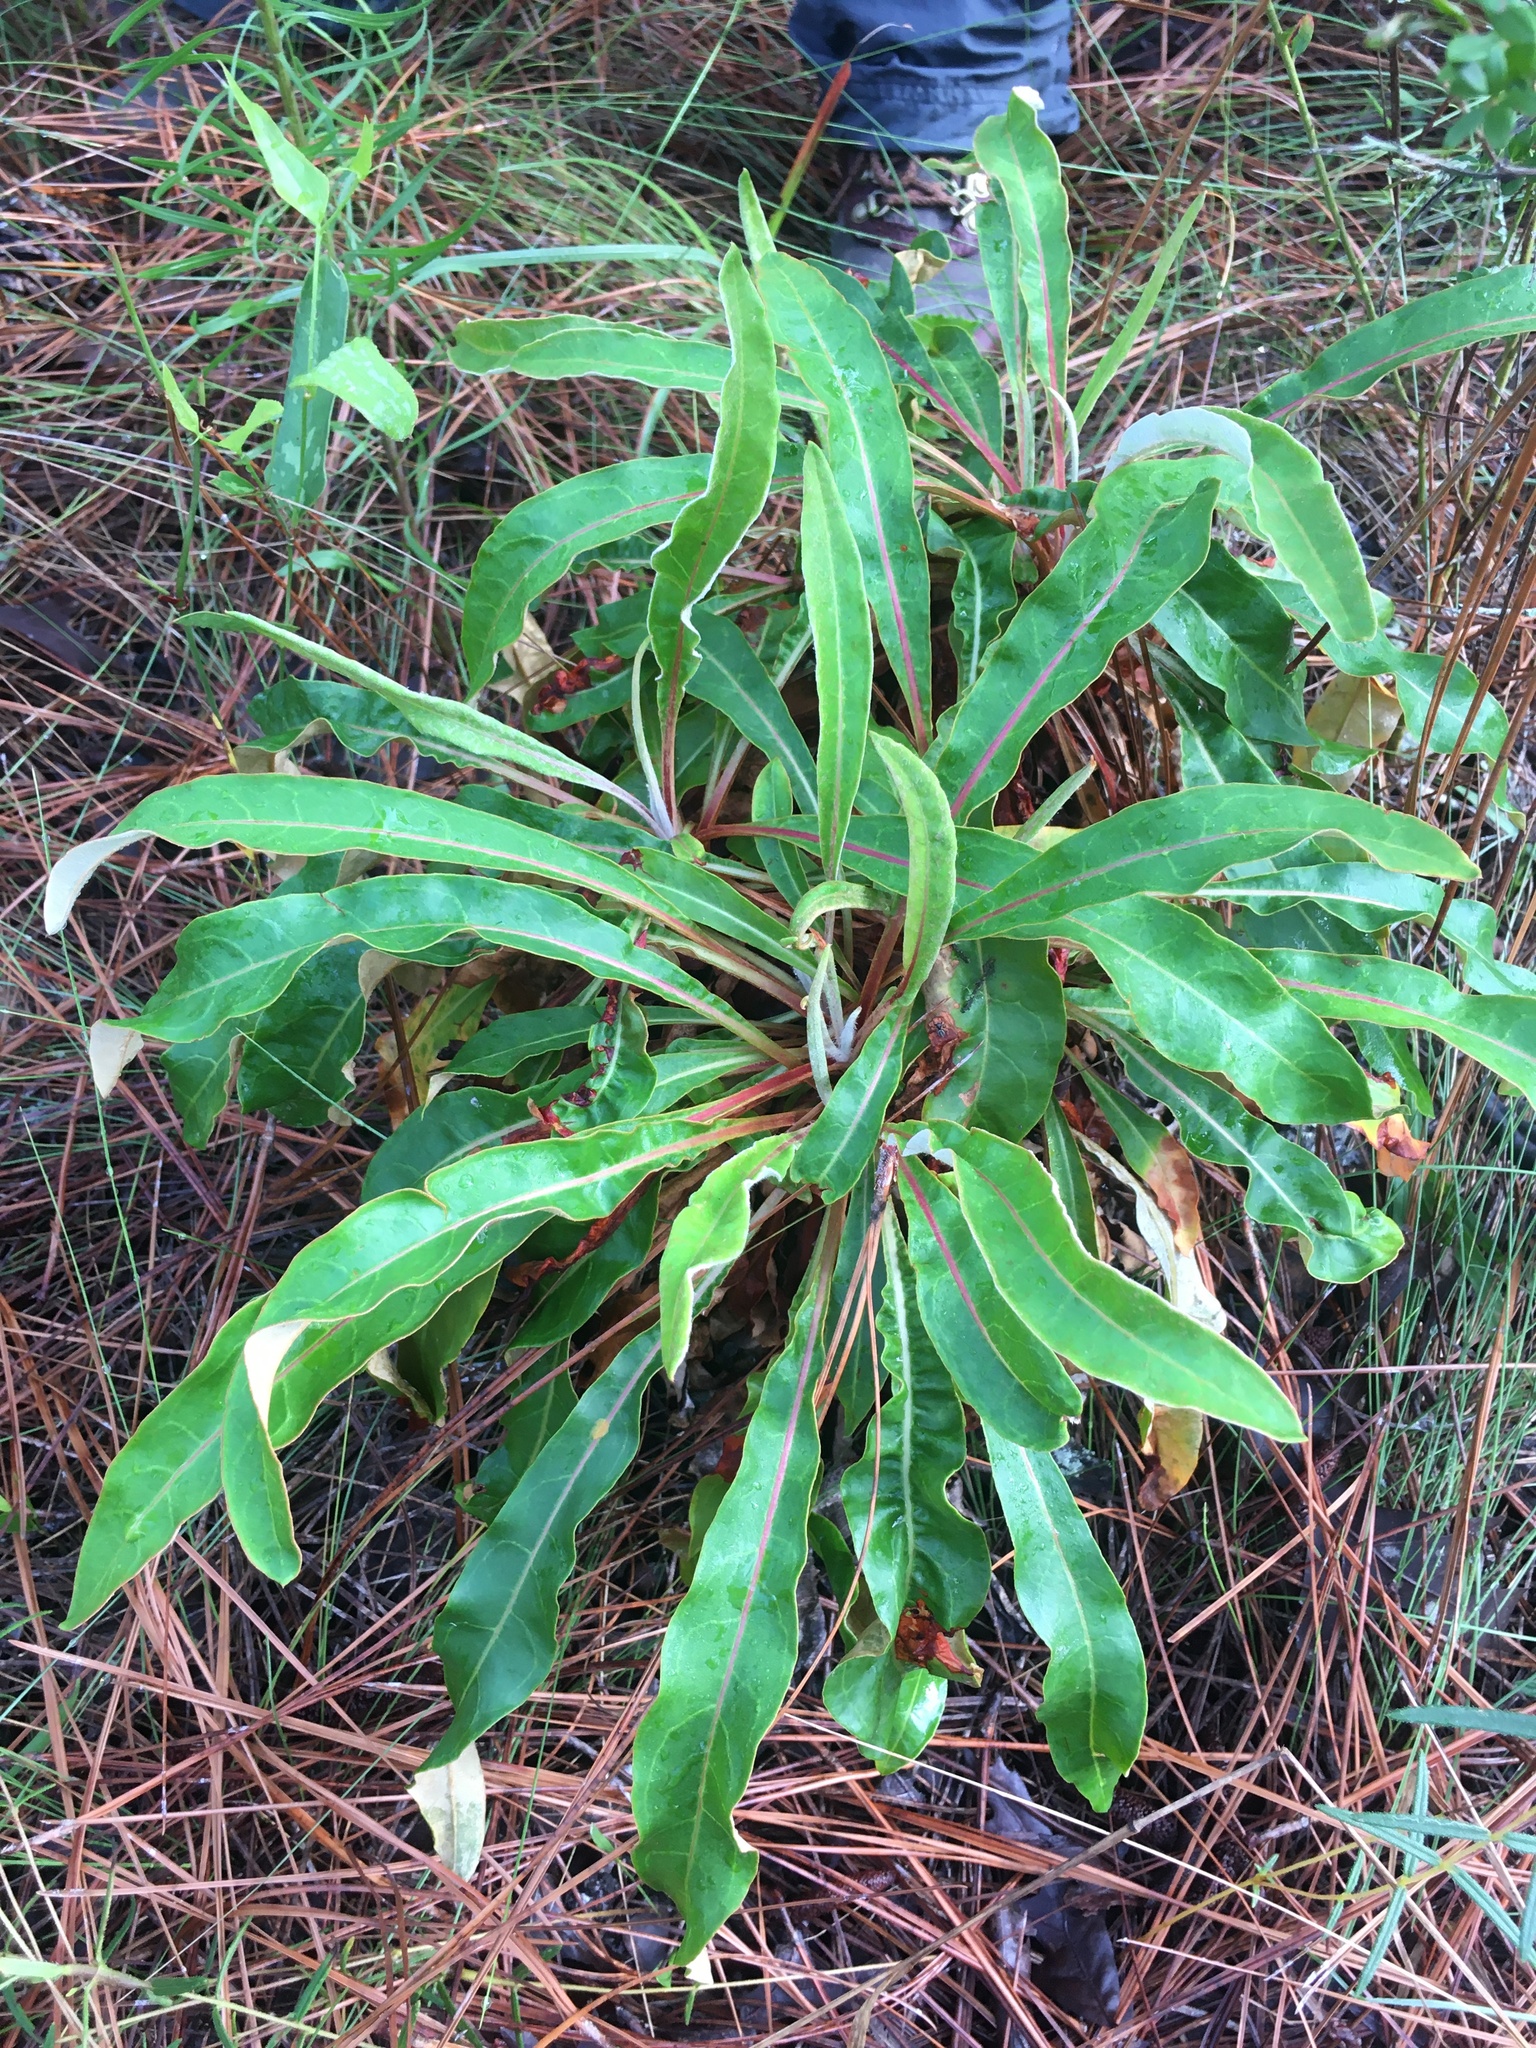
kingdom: Plantae
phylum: Tracheophyta
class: Magnoliopsida
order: Caryophyllales
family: Polygonaceae
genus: Eriogonum
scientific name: Eriogonum tomentosum
